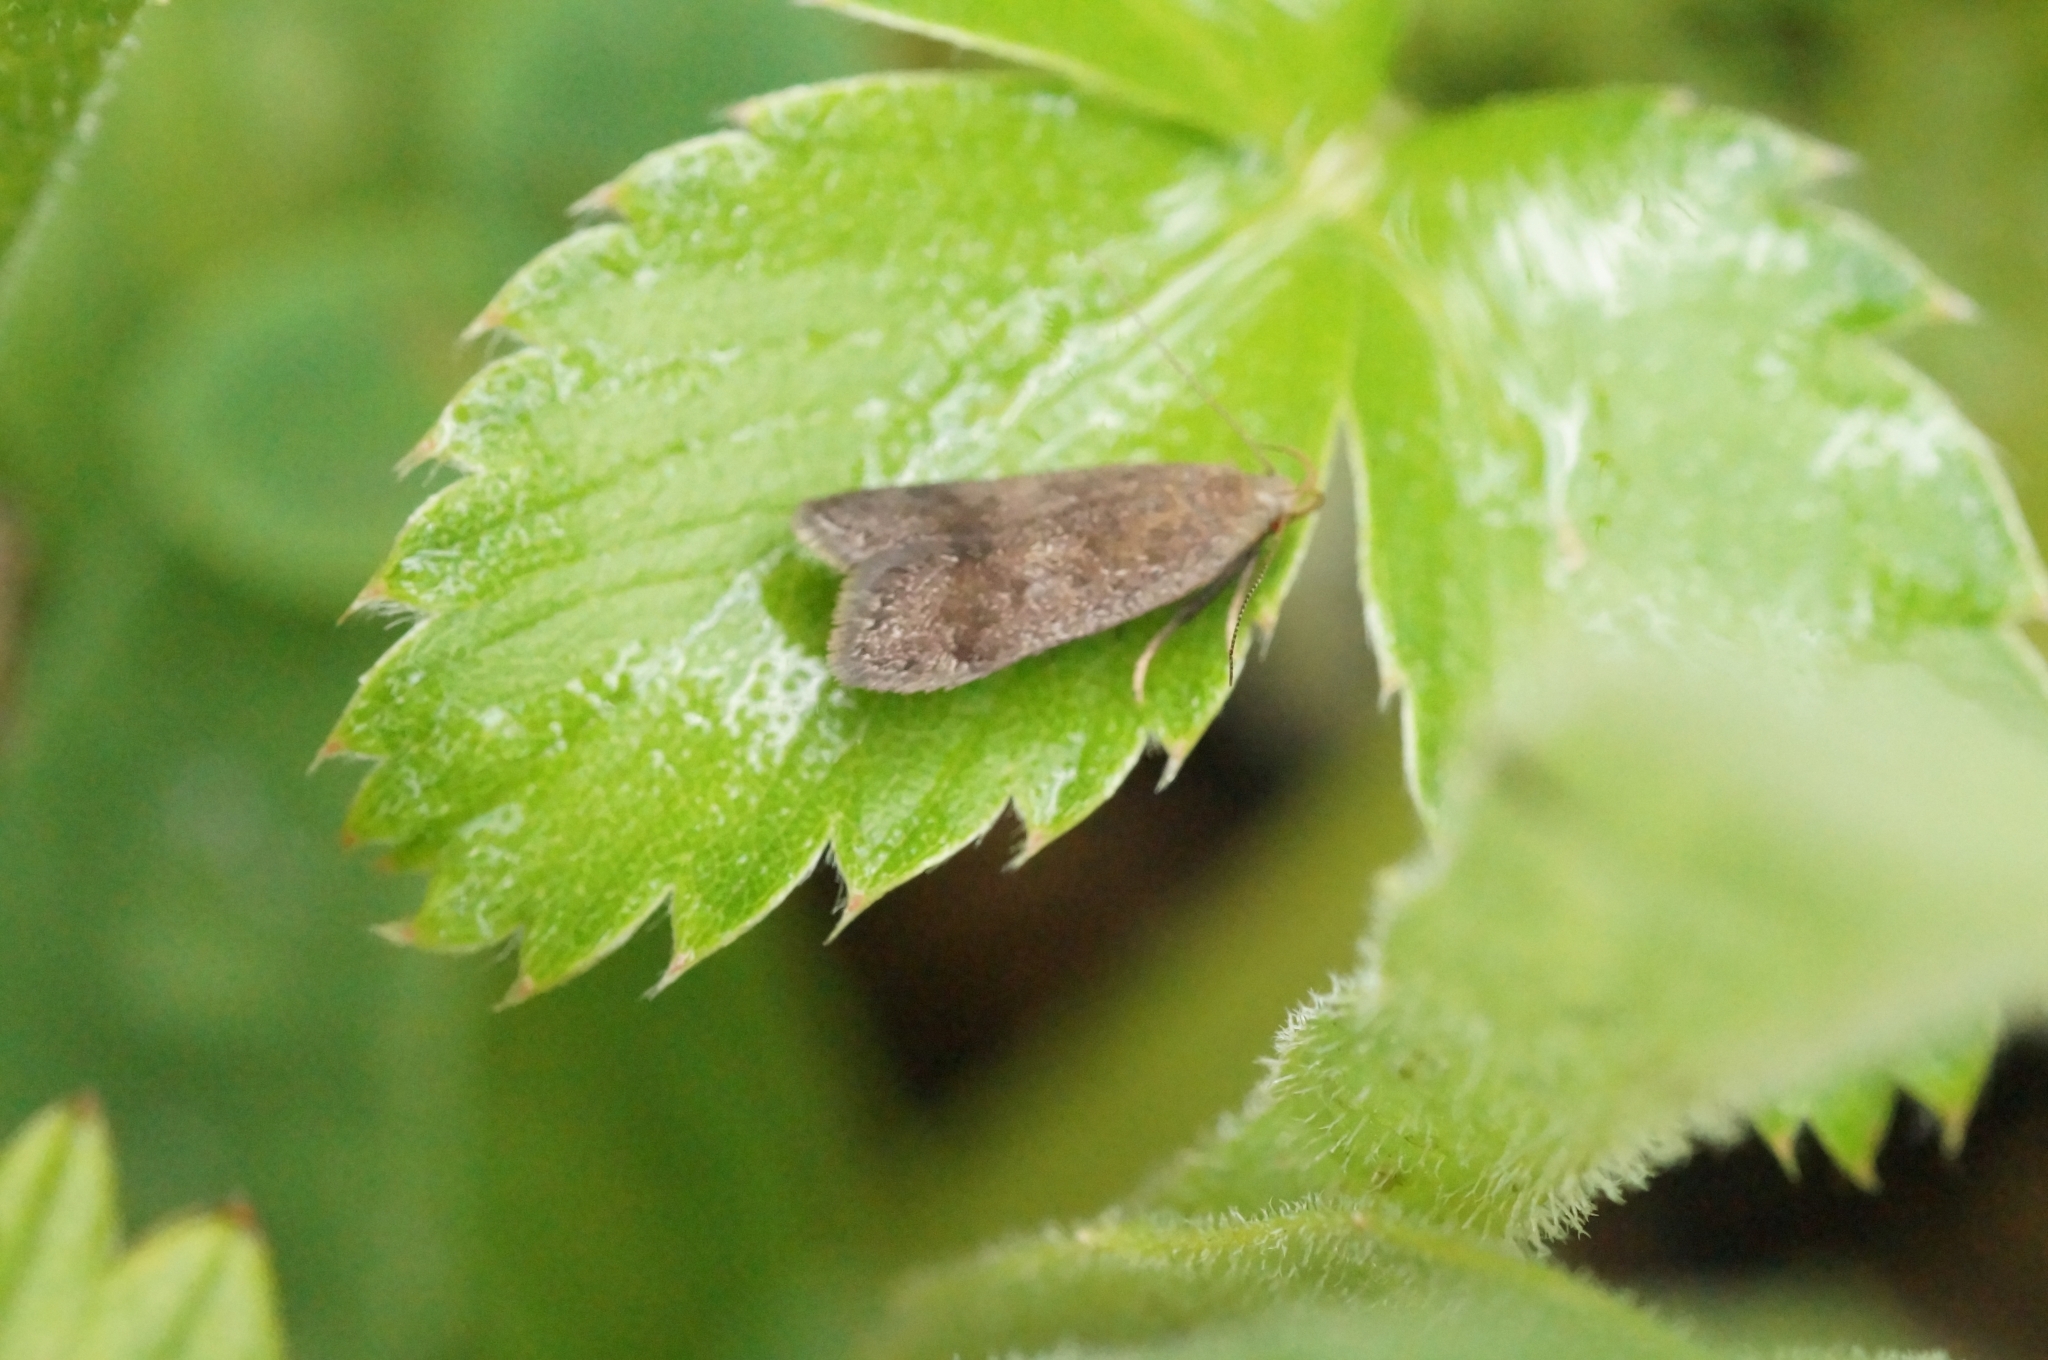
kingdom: Animalia
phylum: Arthropoda
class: Insecta
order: Lepidoptera
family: Gelechiidae
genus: Anacampsis
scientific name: Anacampsis
